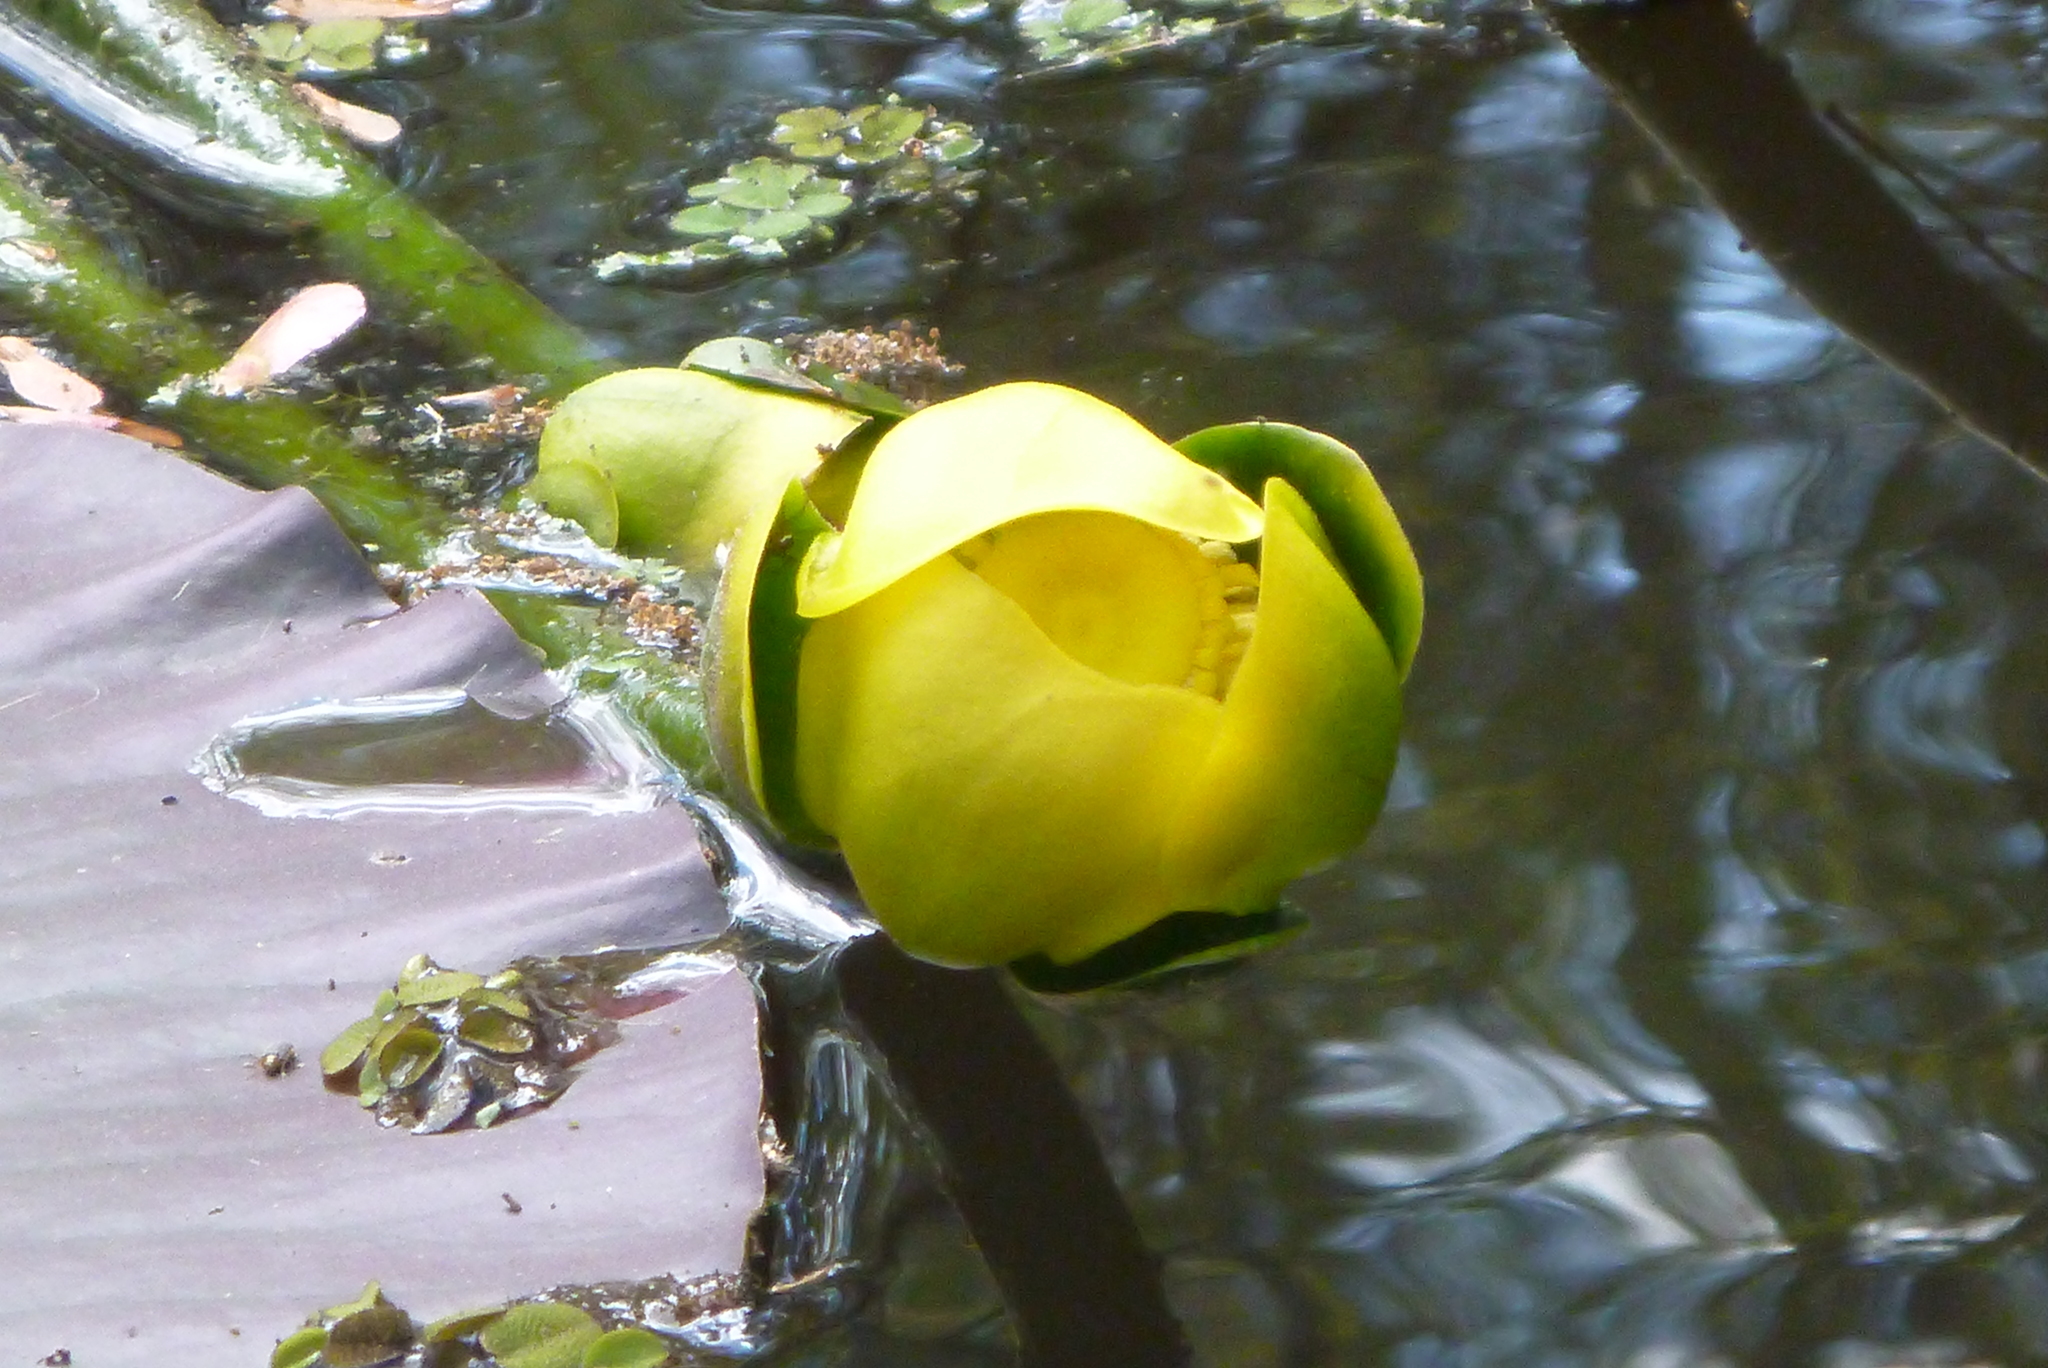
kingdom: Plantae
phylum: Tracheophyta
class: Magnoliopsida
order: Nymphaeales
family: Nymphaeaceae
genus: Nuphar
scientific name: Nuphar advena
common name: Spatter-dock
